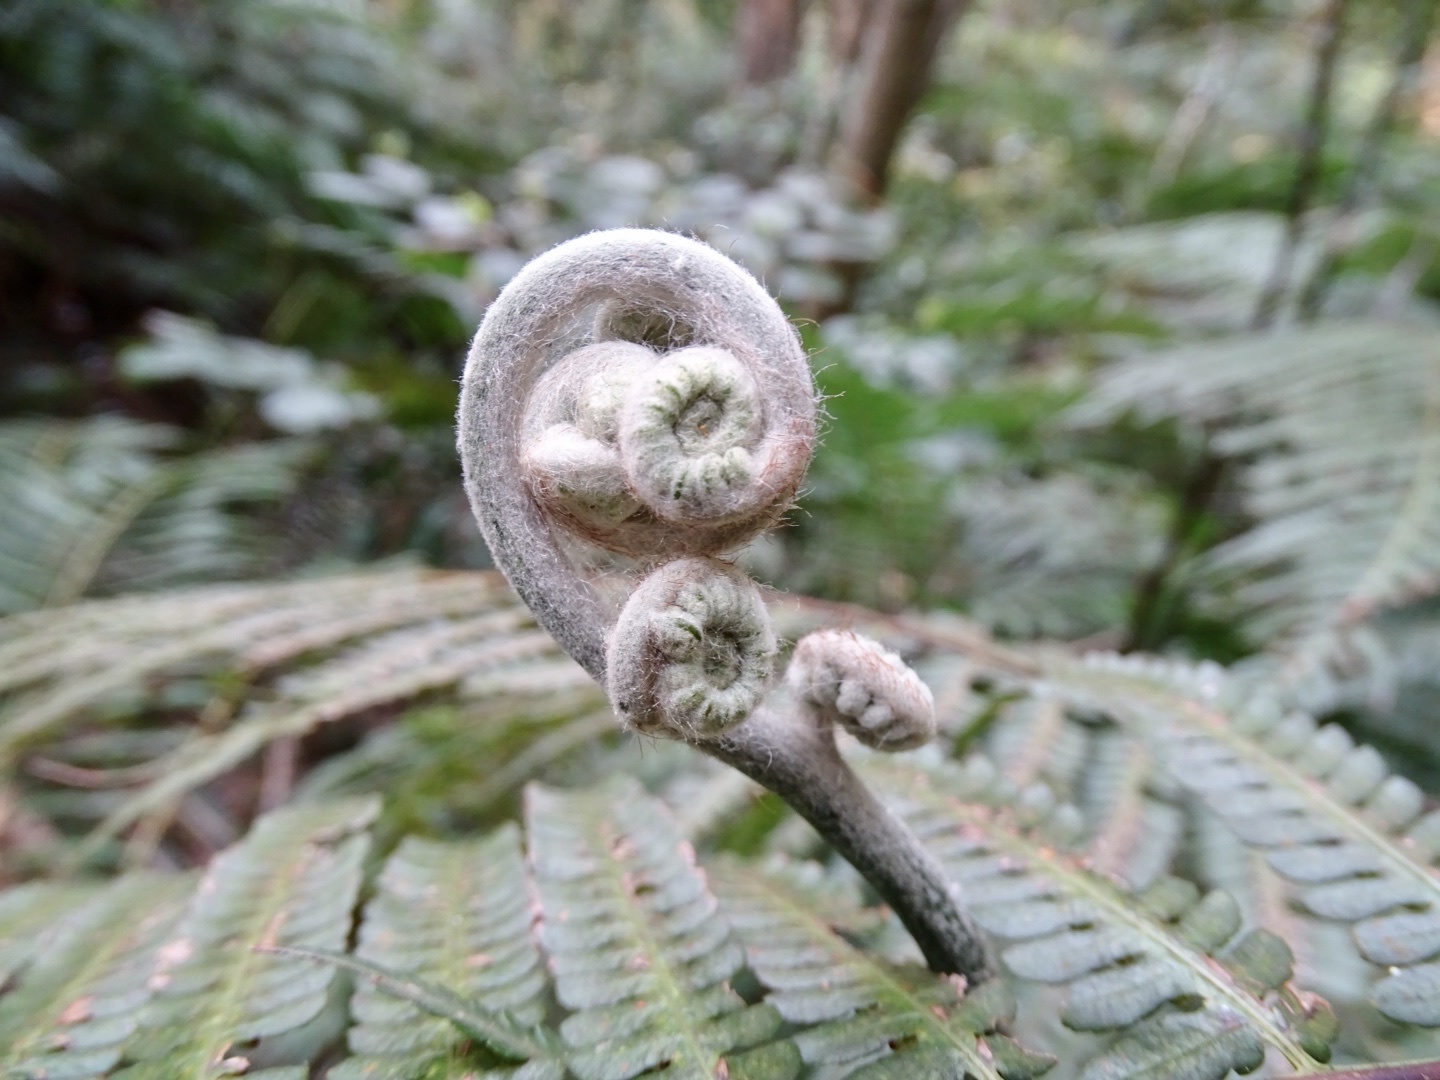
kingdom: Plantae
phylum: Tracheophyta
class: Polypodiopsida
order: Cyatheales
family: Cibotiaceae
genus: Cibotium
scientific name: Cibotium barometz
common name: Scythian-lamb
